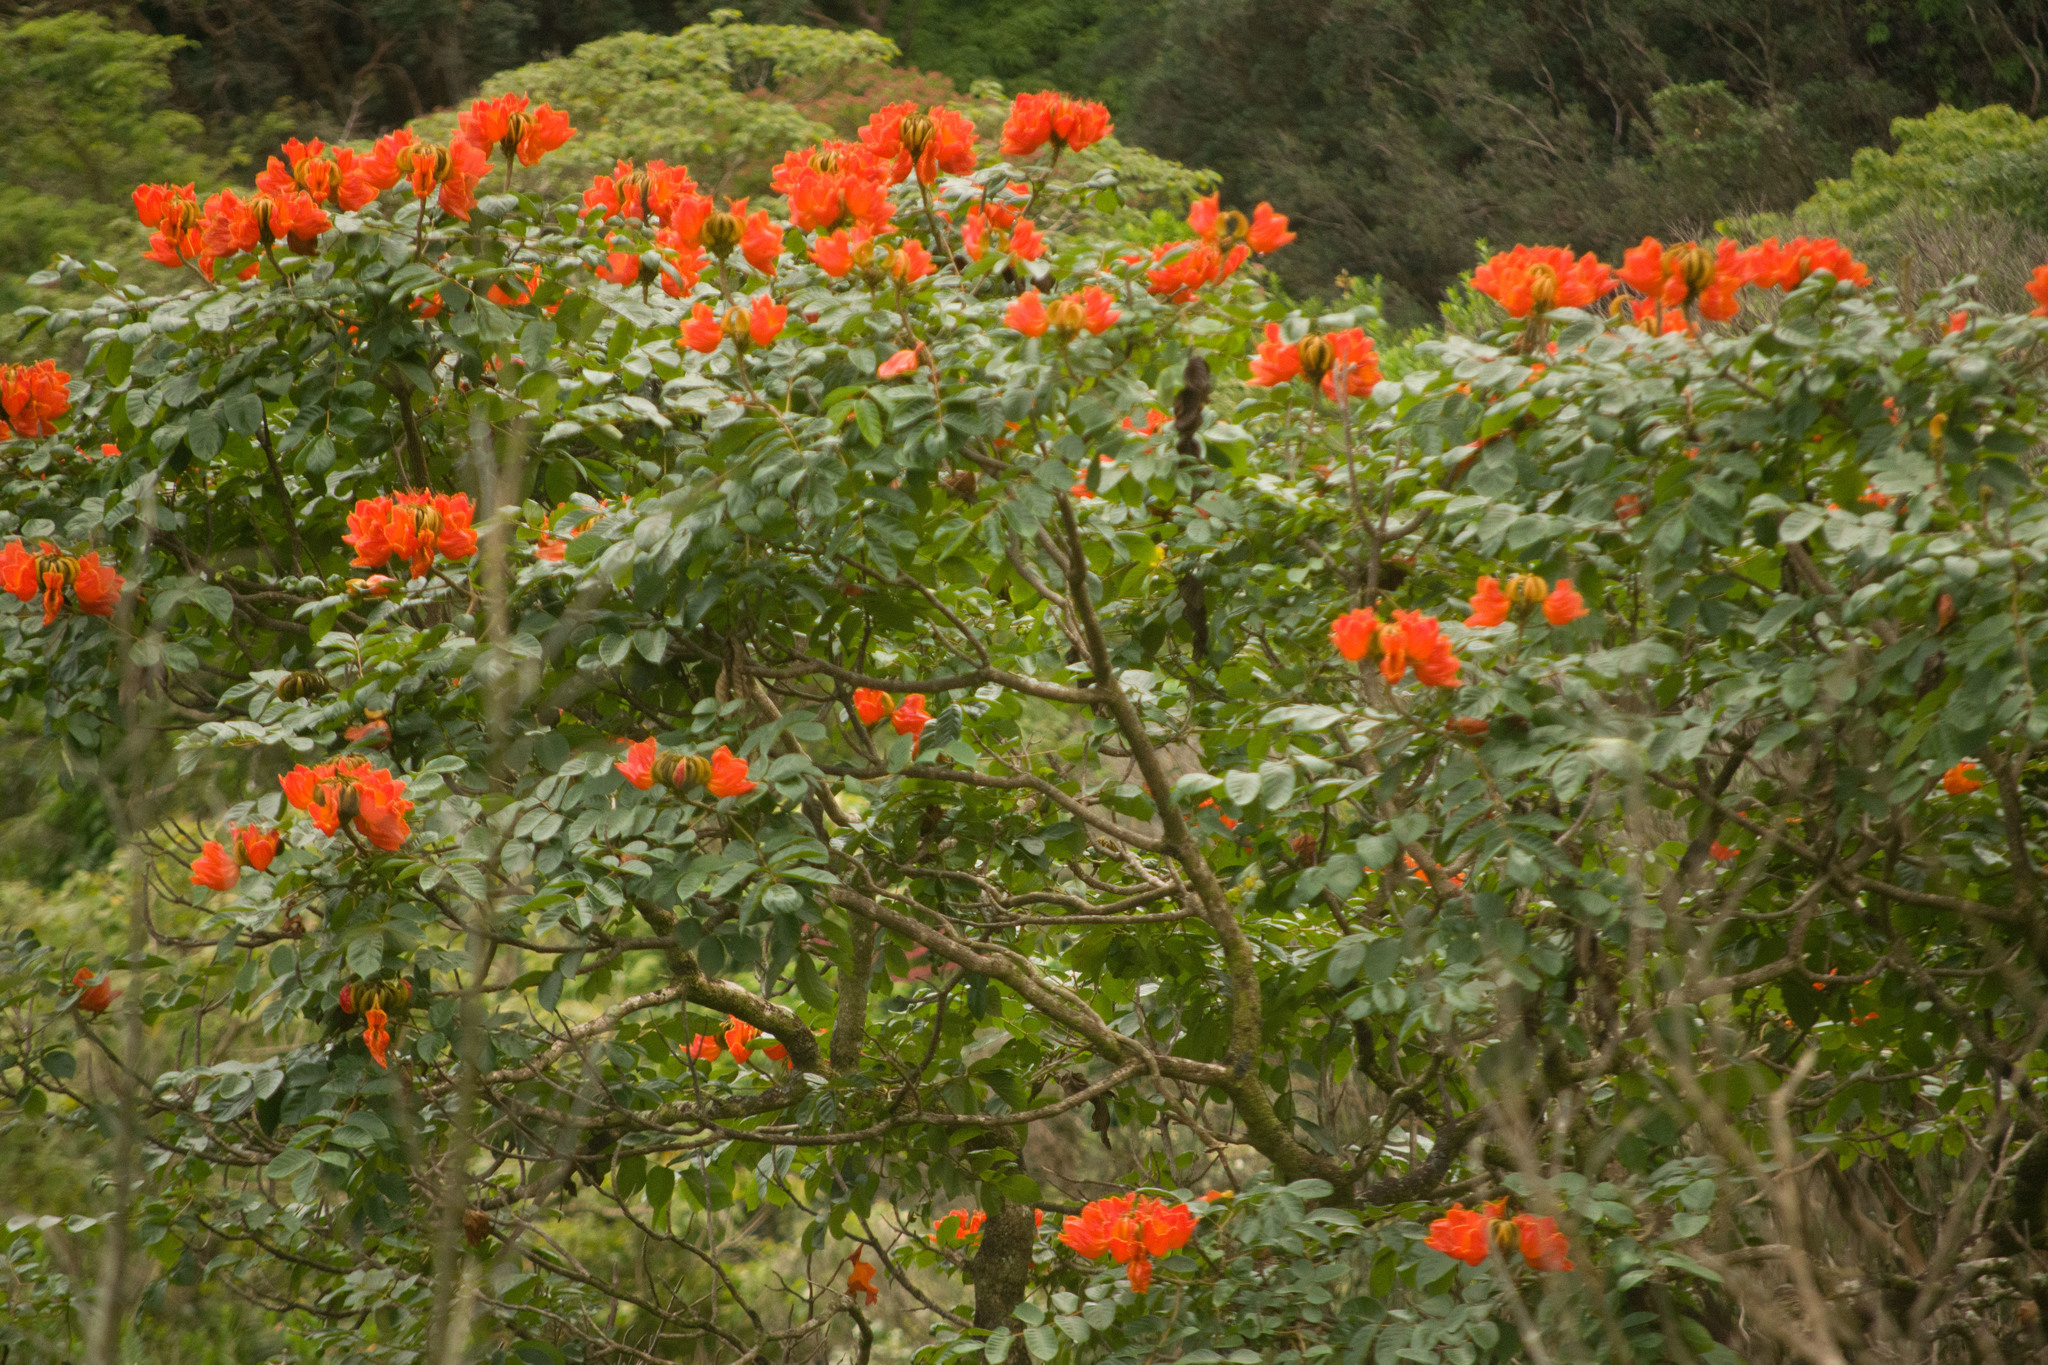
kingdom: Plantae
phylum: Tracheophyta
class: Magnoliopsida
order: Lamiales
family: Bignoniaceae
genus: Spathodea
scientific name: Spathodea campanulata
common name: African tuliptree
